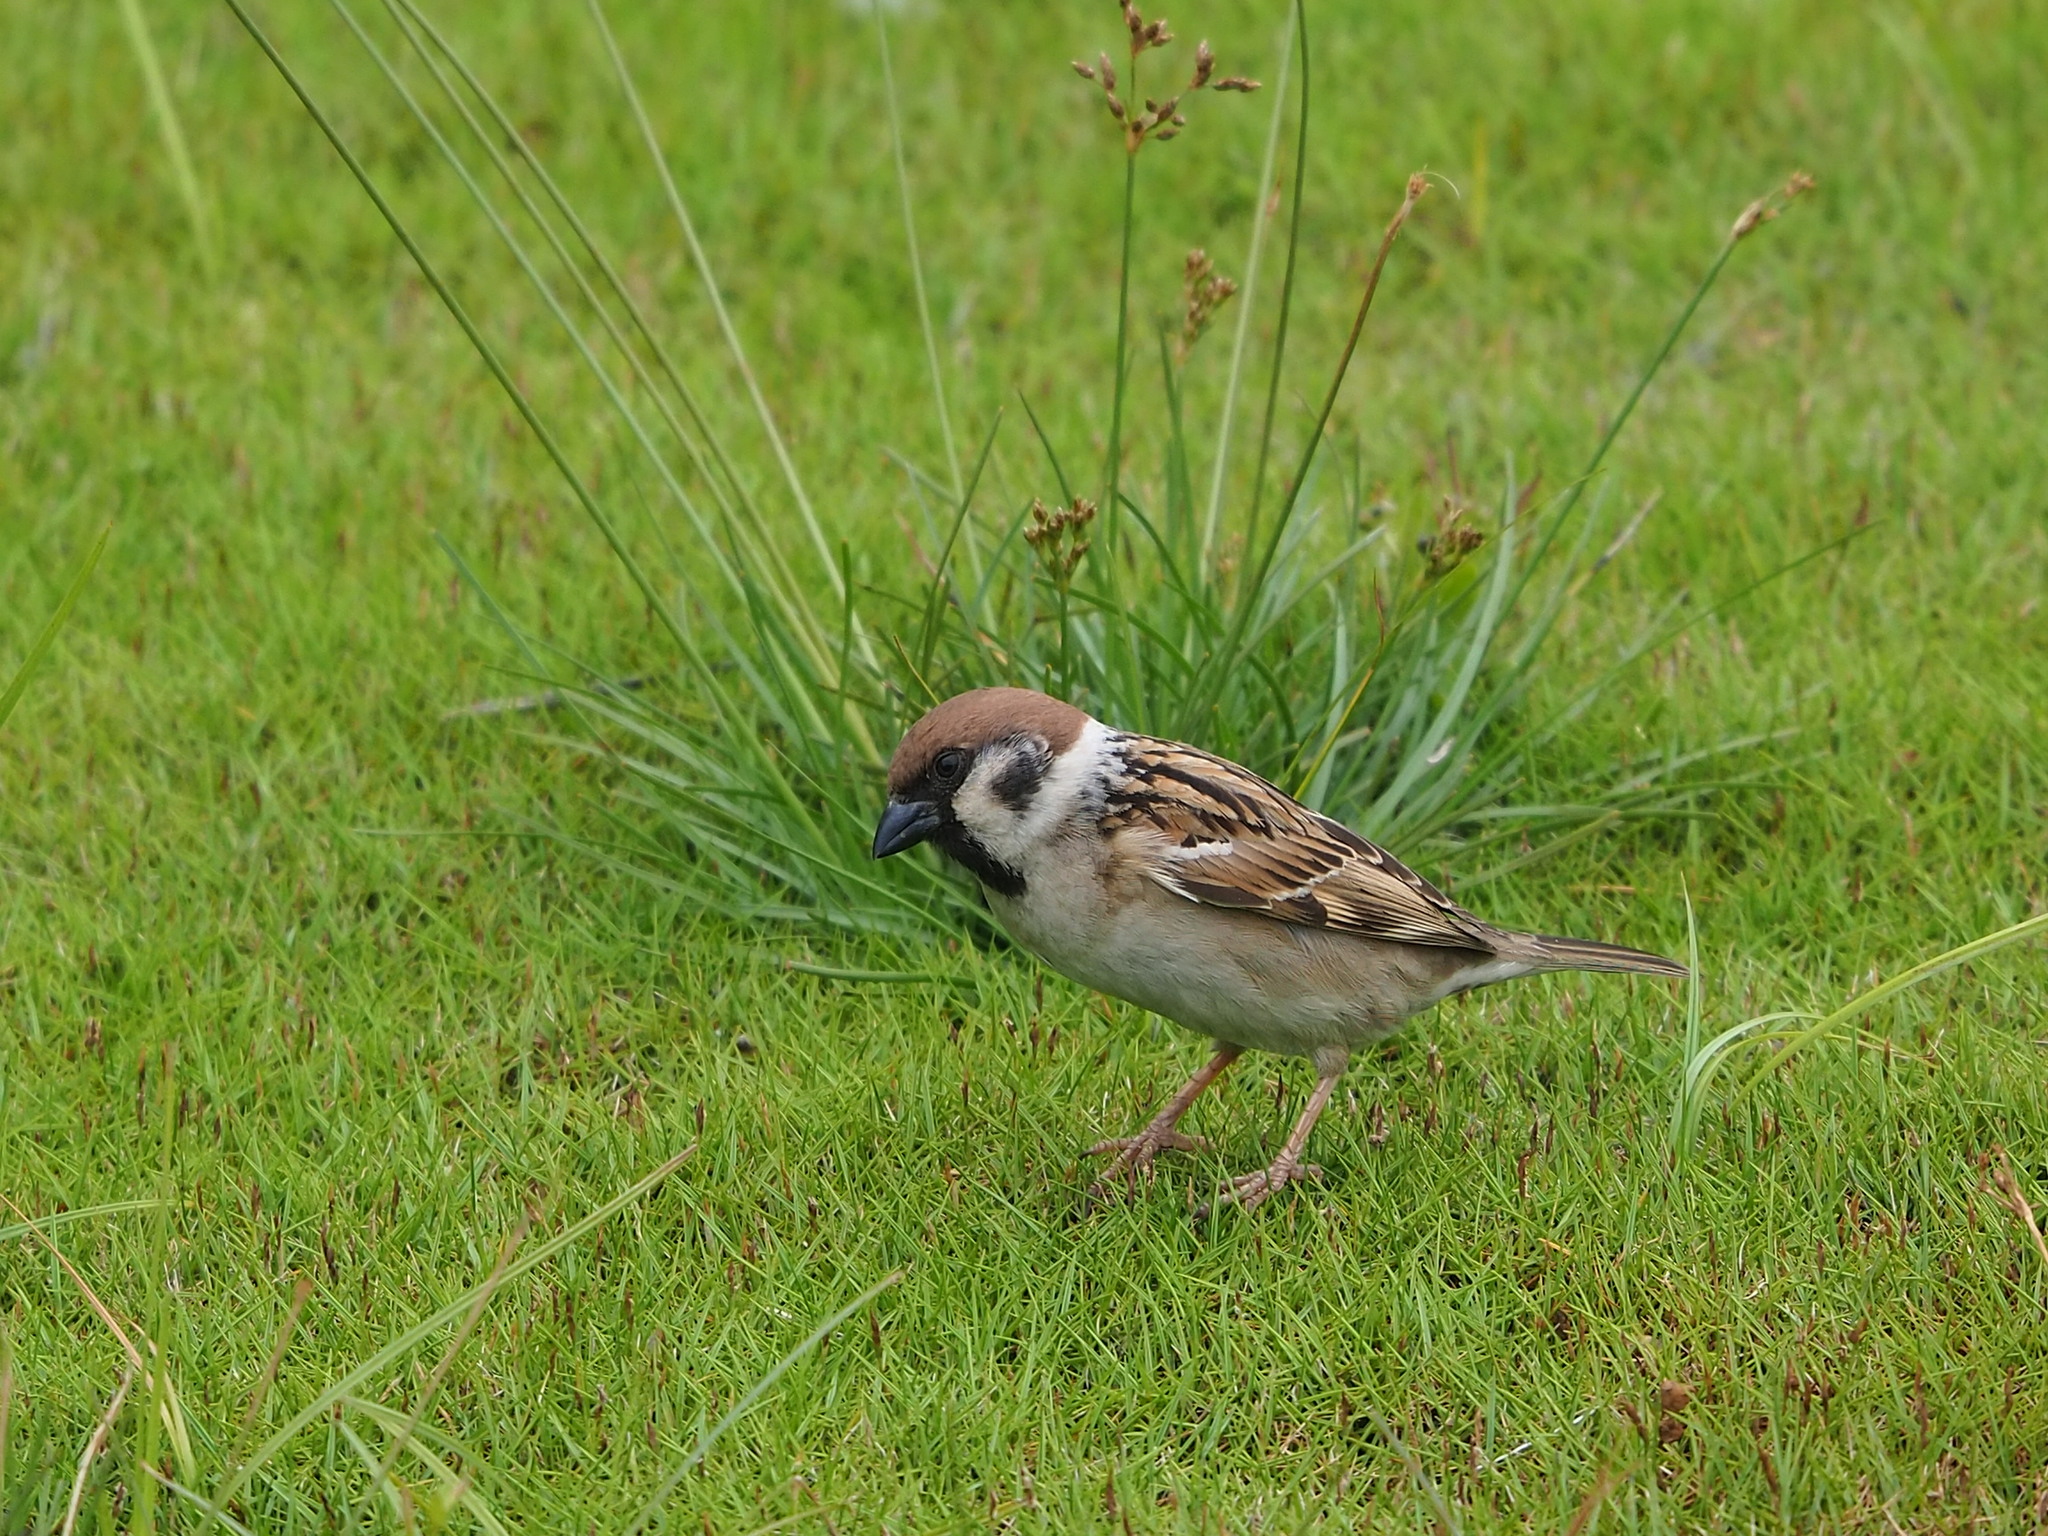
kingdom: Animalia
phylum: Chordata
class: Aves
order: Passeriformes
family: Passeridae
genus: Passer
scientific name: Passer montanus
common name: Eurasian tree sparrow
